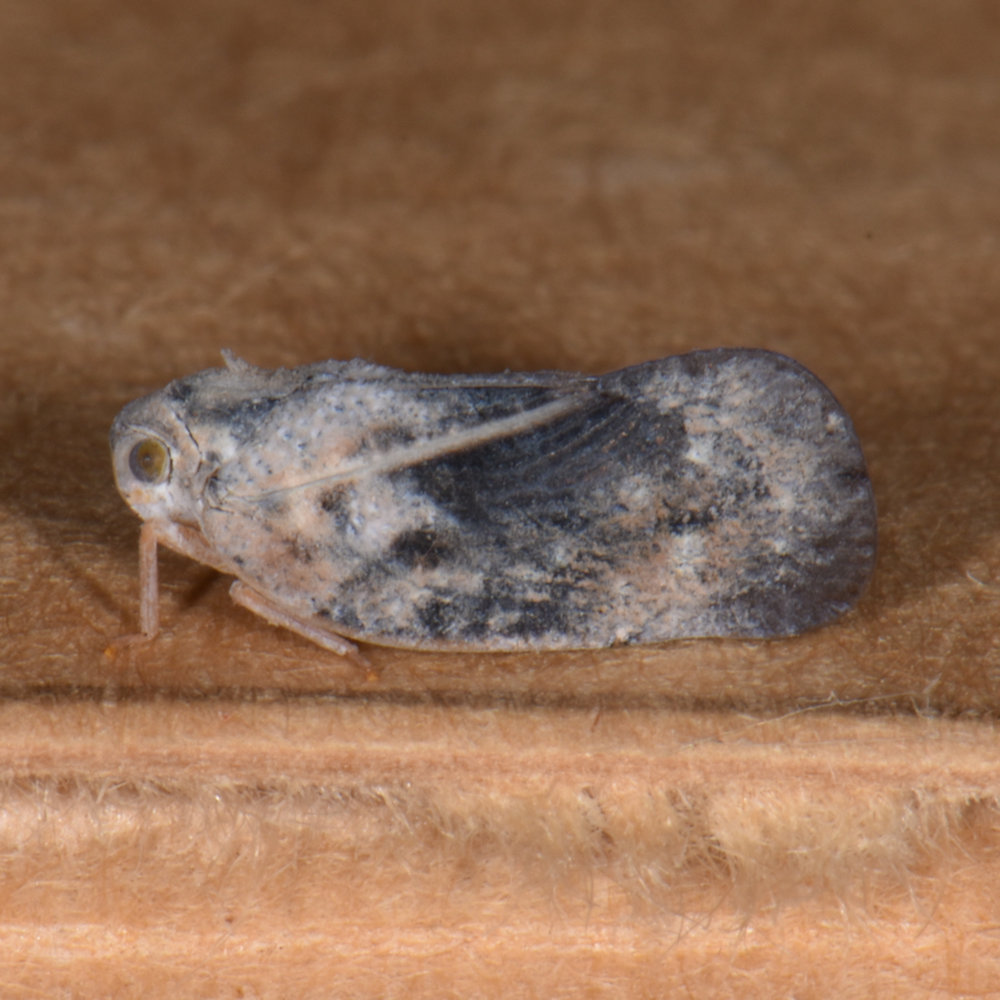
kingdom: Animalia
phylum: Arthropoda
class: Insecta
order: Hemiptera
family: Flatidae
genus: Metcalfa
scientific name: Metcalfa pruinosa
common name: Citrus flatid planthopper
